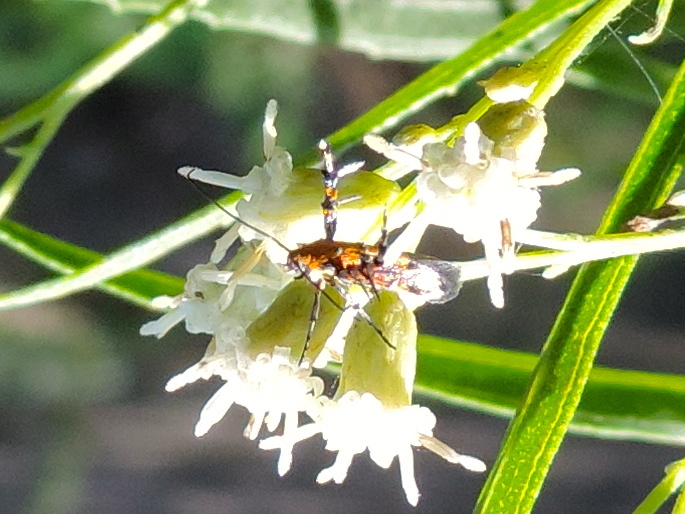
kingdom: Animalia
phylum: Arthropoda
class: Insecta
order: Lepidoptera
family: Heliodinidae
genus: Heliodines
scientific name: Heliodines
